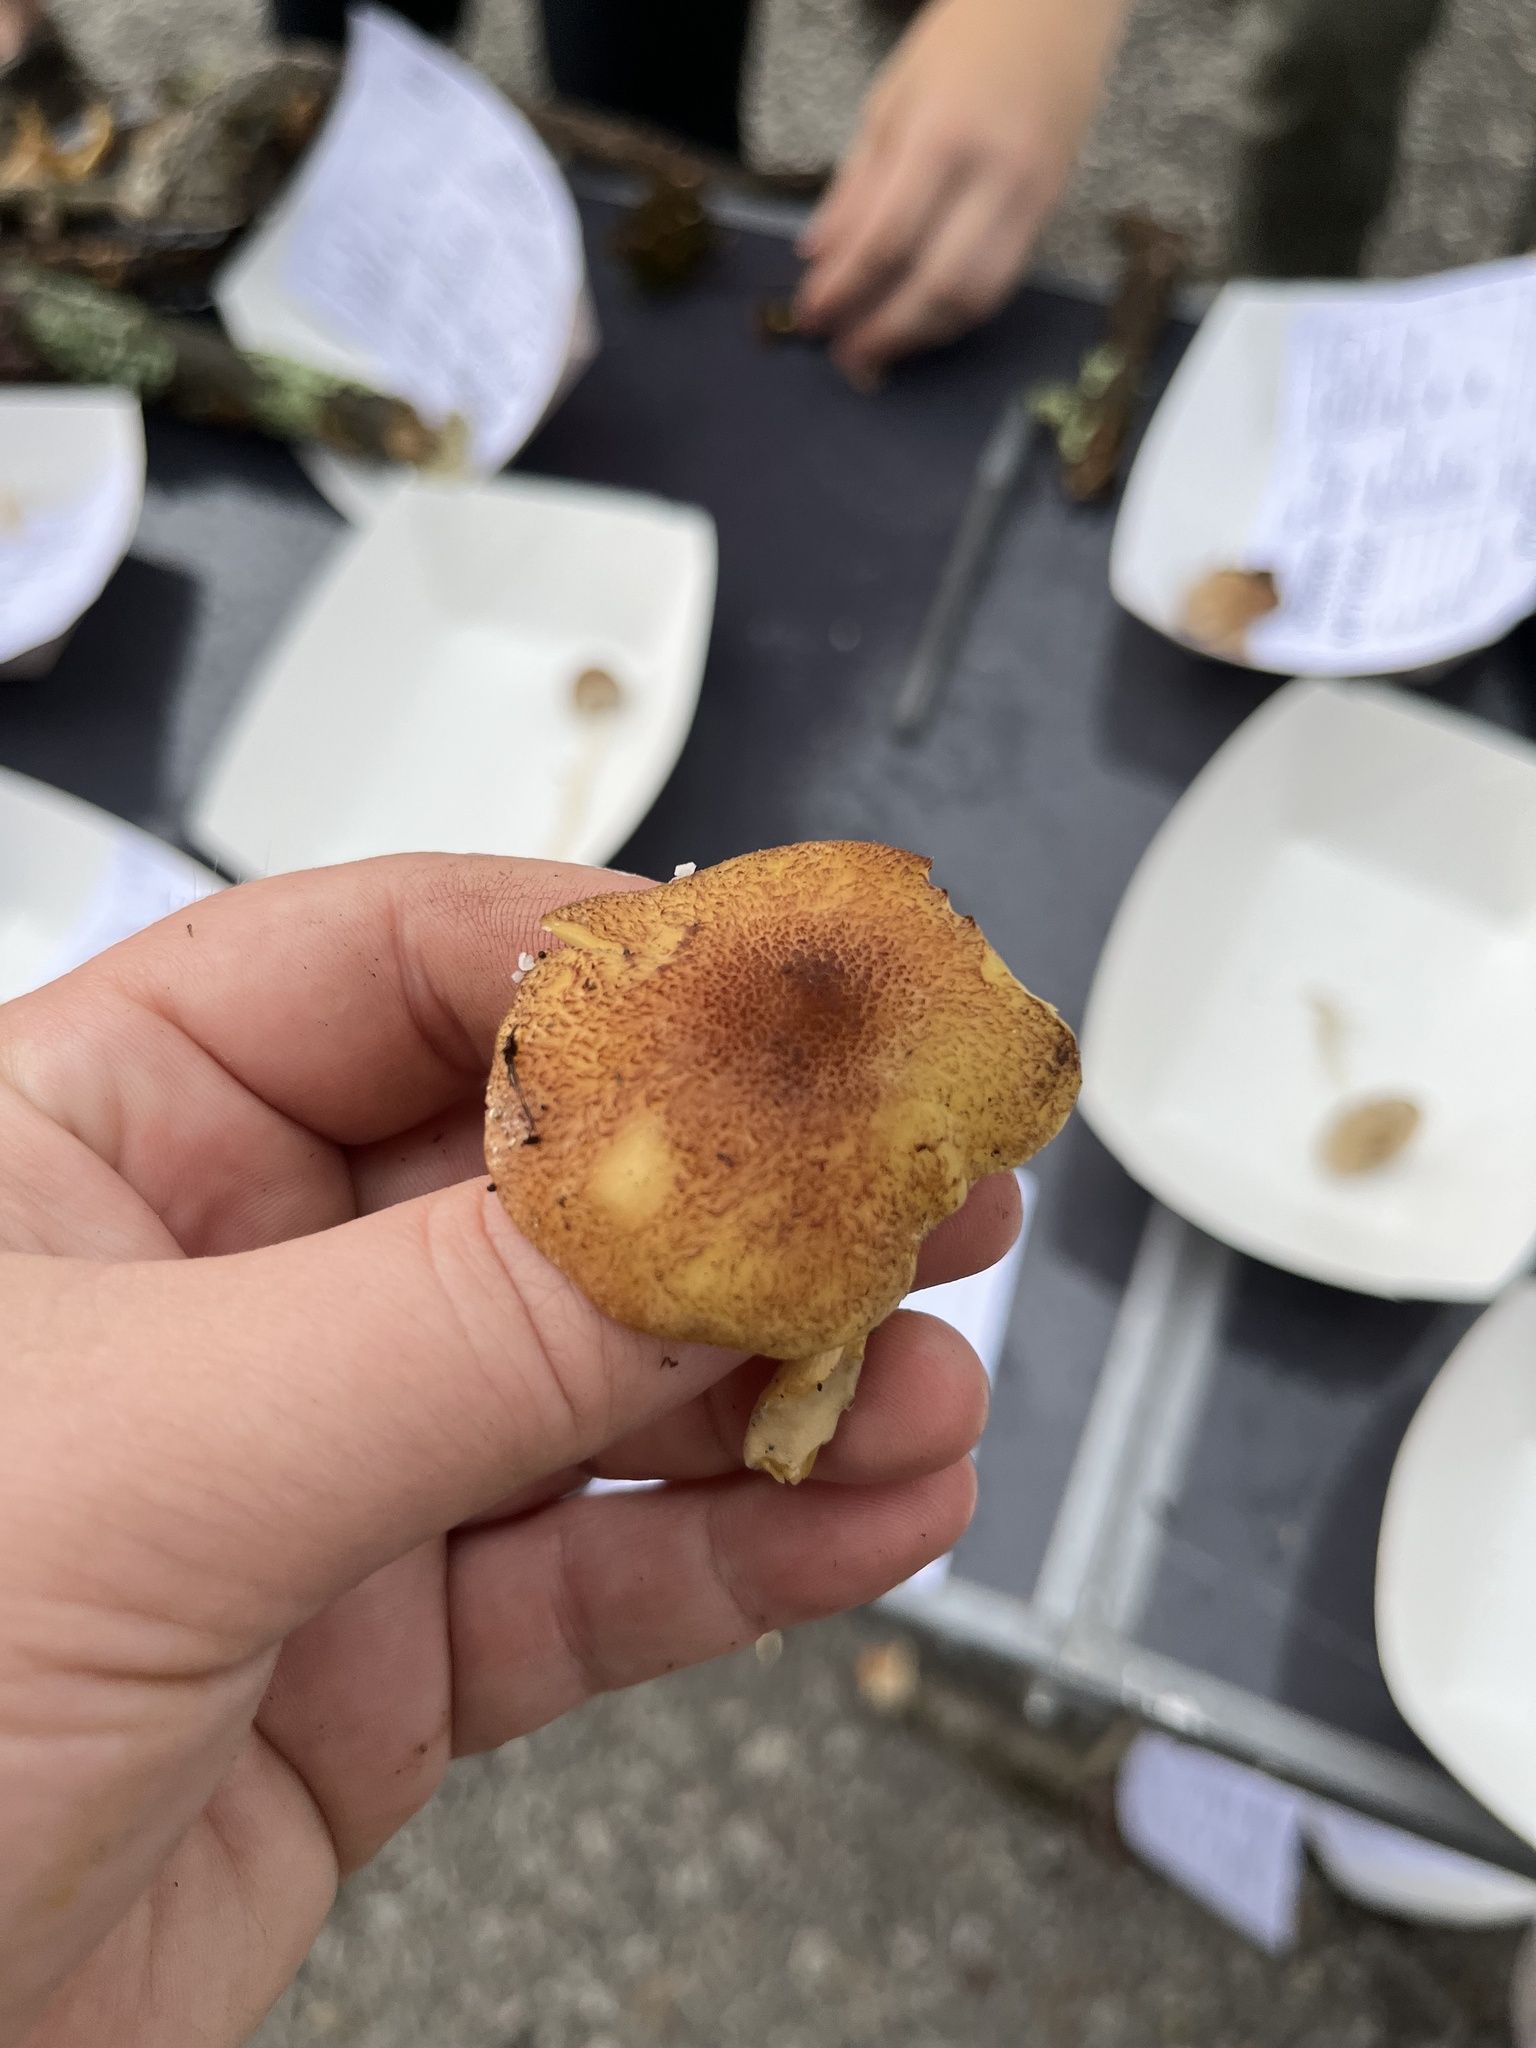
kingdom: Fungi
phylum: Basidiomycota
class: Agaricomycetes
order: Agaricales
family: Tricholomataceae
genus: Tricholomopsis
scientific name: Tricholomopsis flammula
